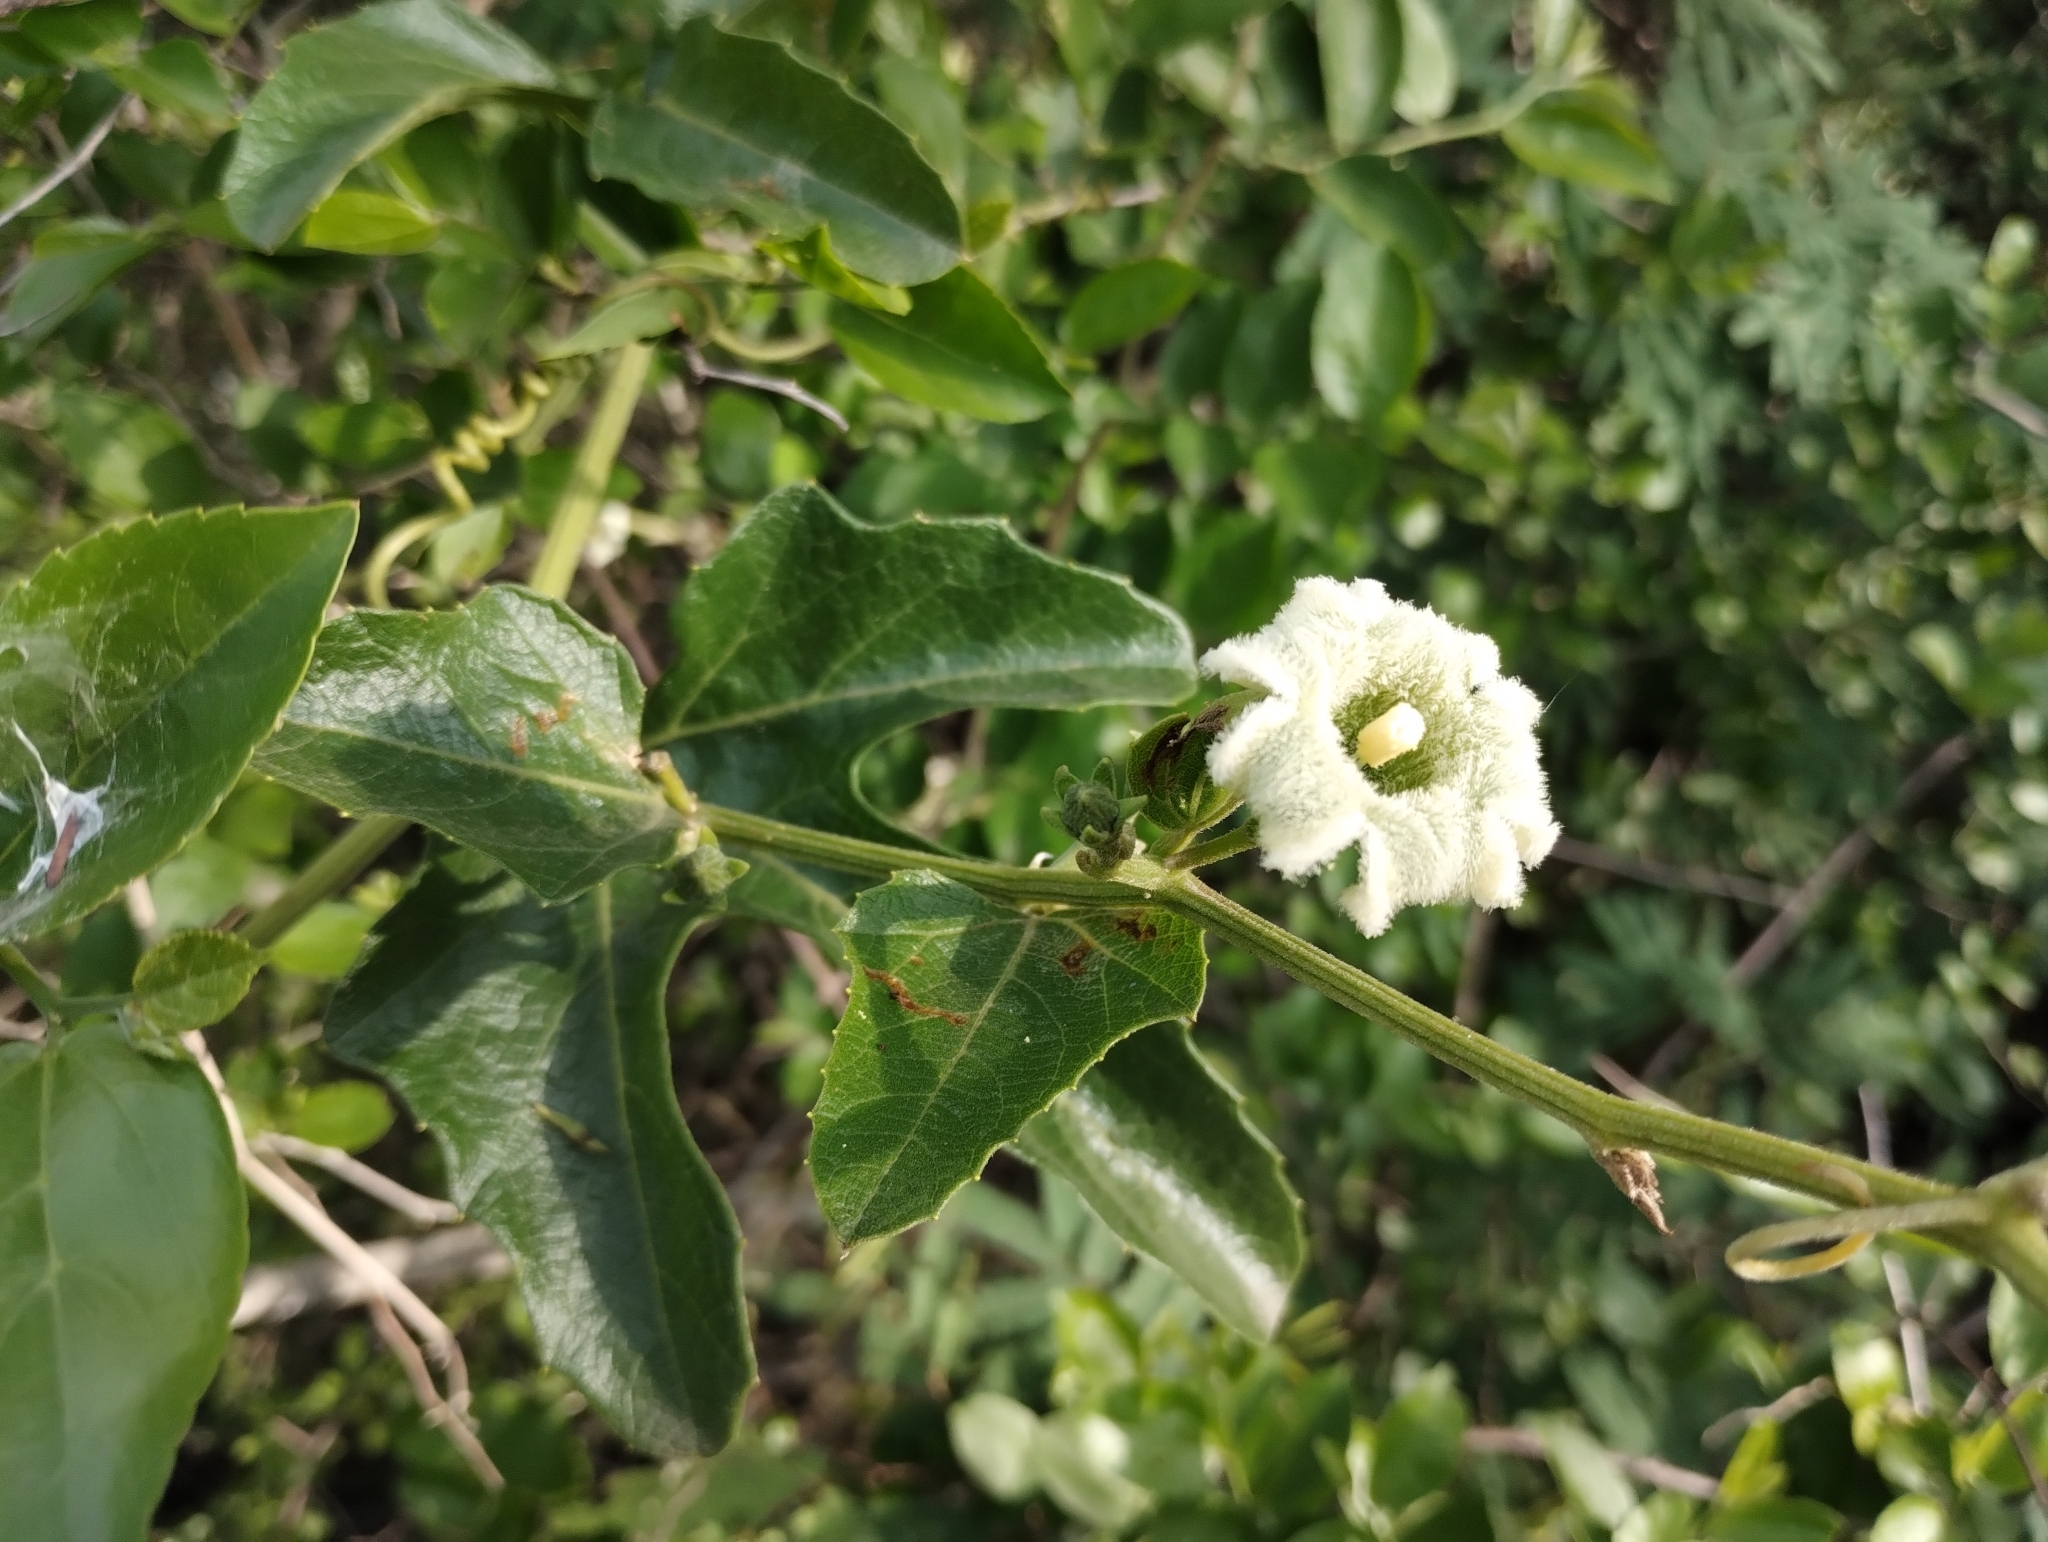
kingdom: Plantae
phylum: Tracheophyta
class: Magnoliopsida
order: Cucurbitales
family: Cucurbitaceae
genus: Cayaponia
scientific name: Cayaponia podantha
